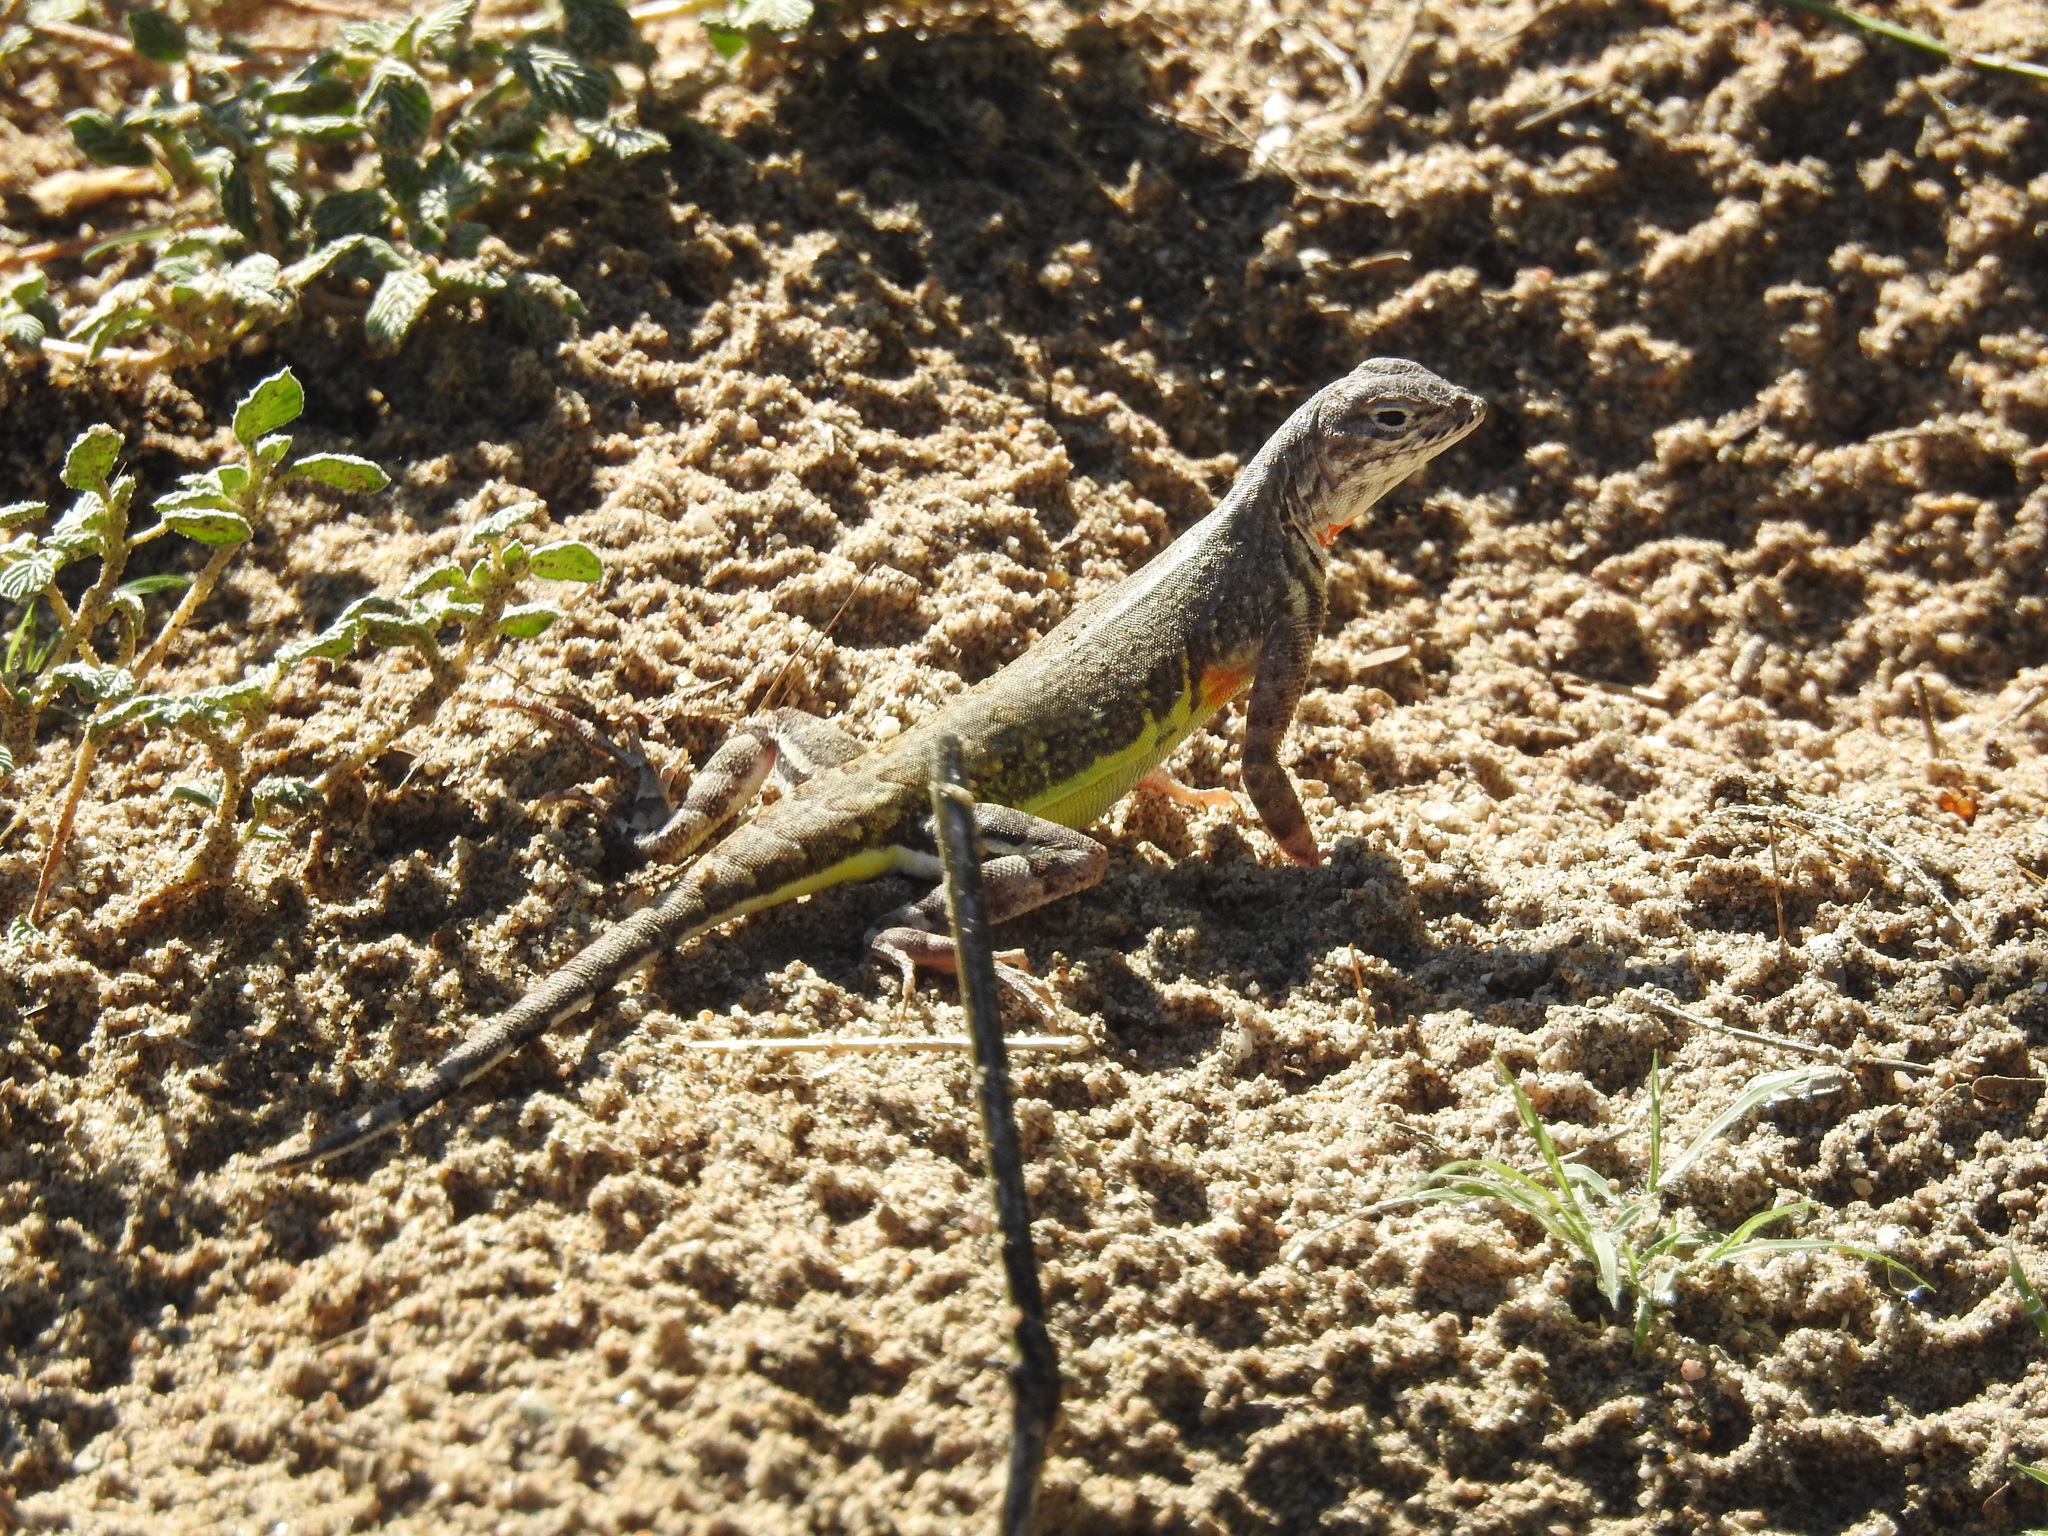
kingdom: Animalia
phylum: Chordata
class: Squamata
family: Phrynosomatidae
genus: Callisaurus
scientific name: Callisaurus draconoides
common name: Zebra-tailed lizard
